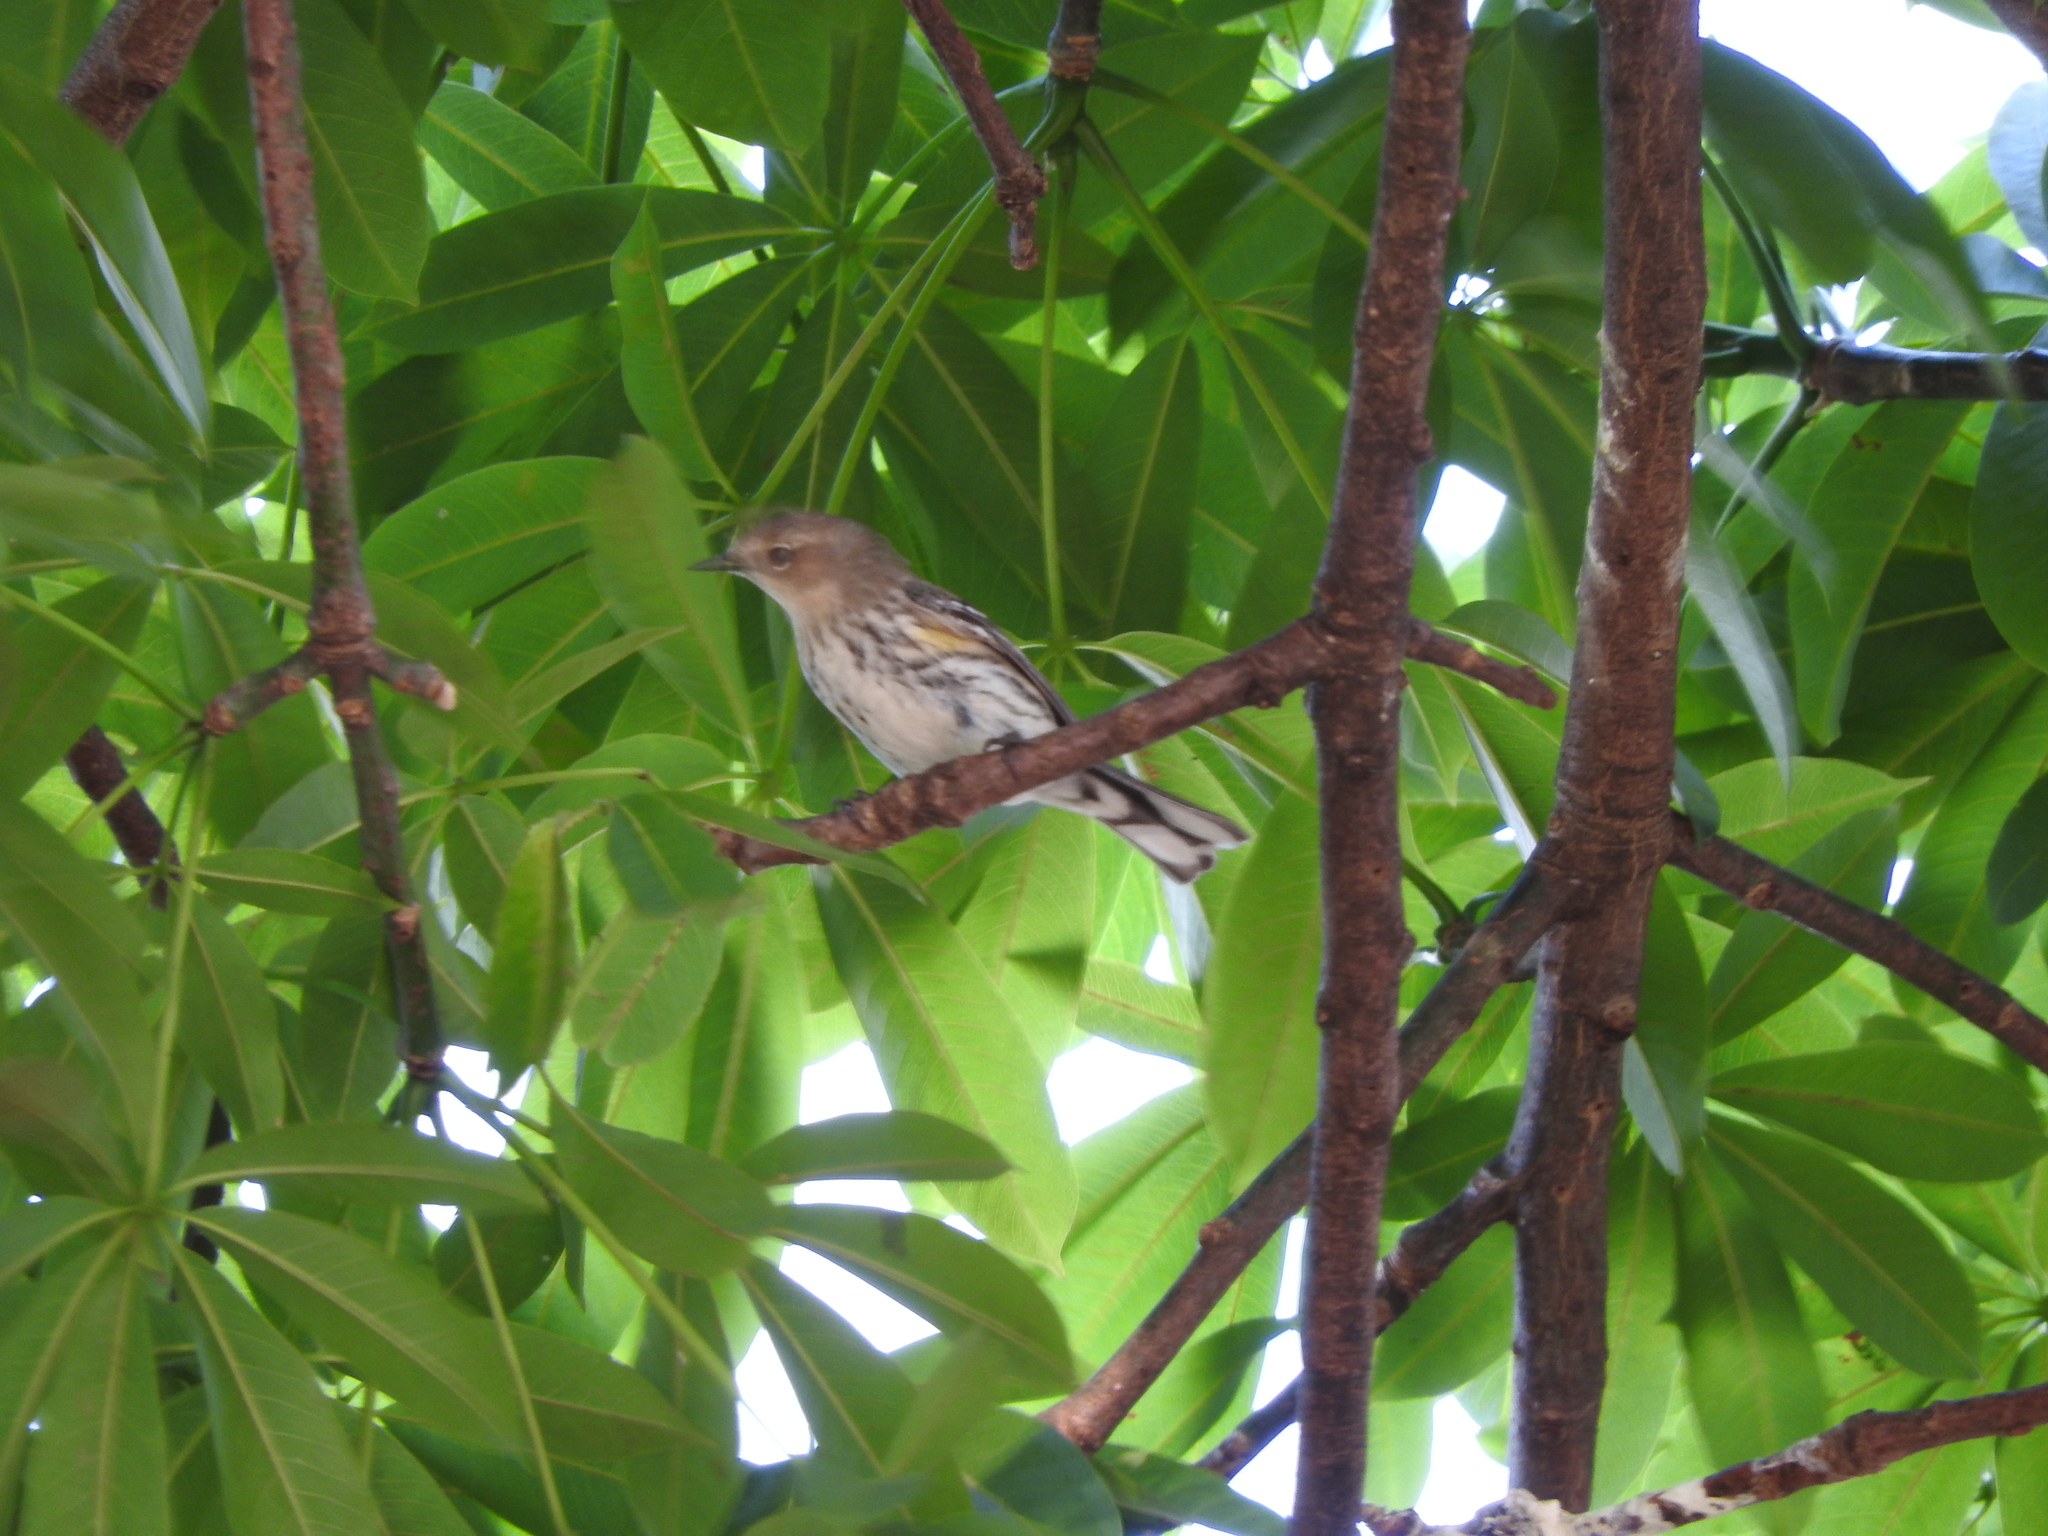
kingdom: Animalia
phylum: Chordata
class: Aves
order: Passeriformes
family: Parulidae
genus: Setophaga
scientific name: Setophaga coronata
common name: Myrtle warbler
